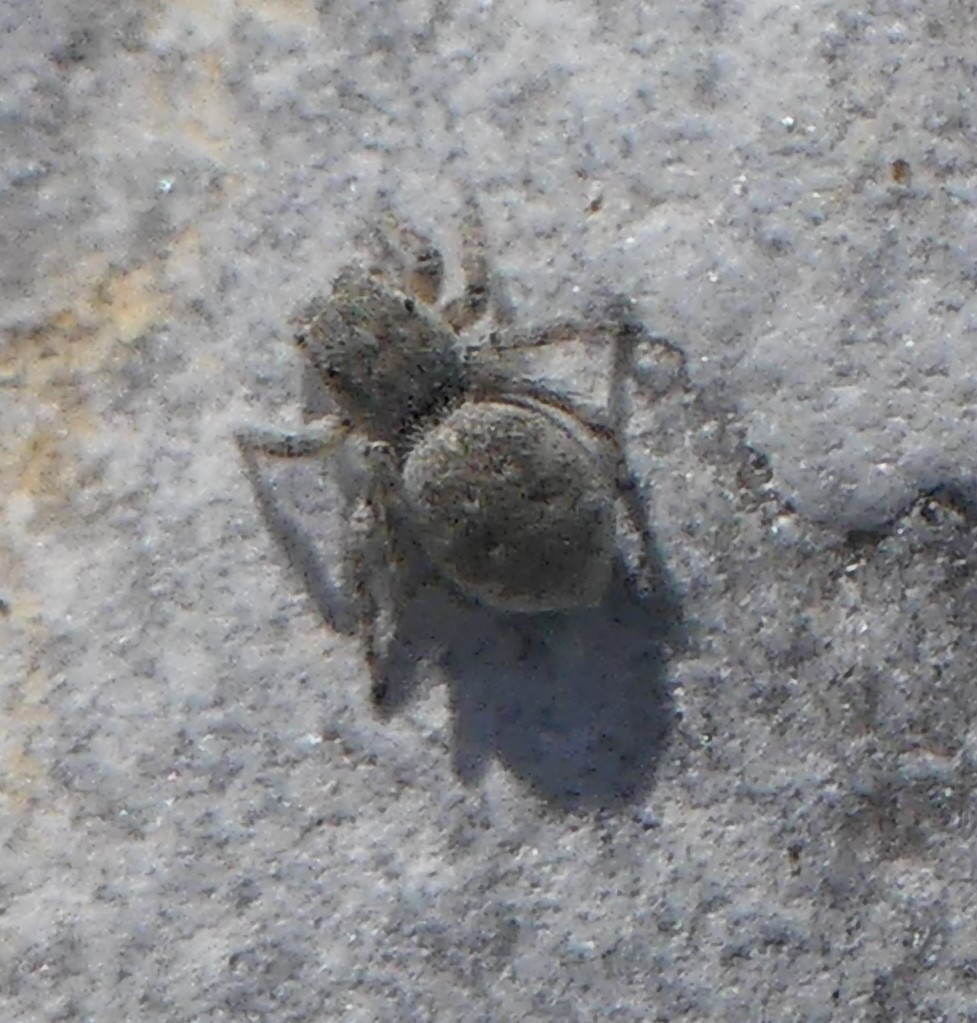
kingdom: Animalia
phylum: Arthropoda
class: Arachnida
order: Araneae
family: Salticidae
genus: Attulus
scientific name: Attulus distinguendus
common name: Distinguished jumper
